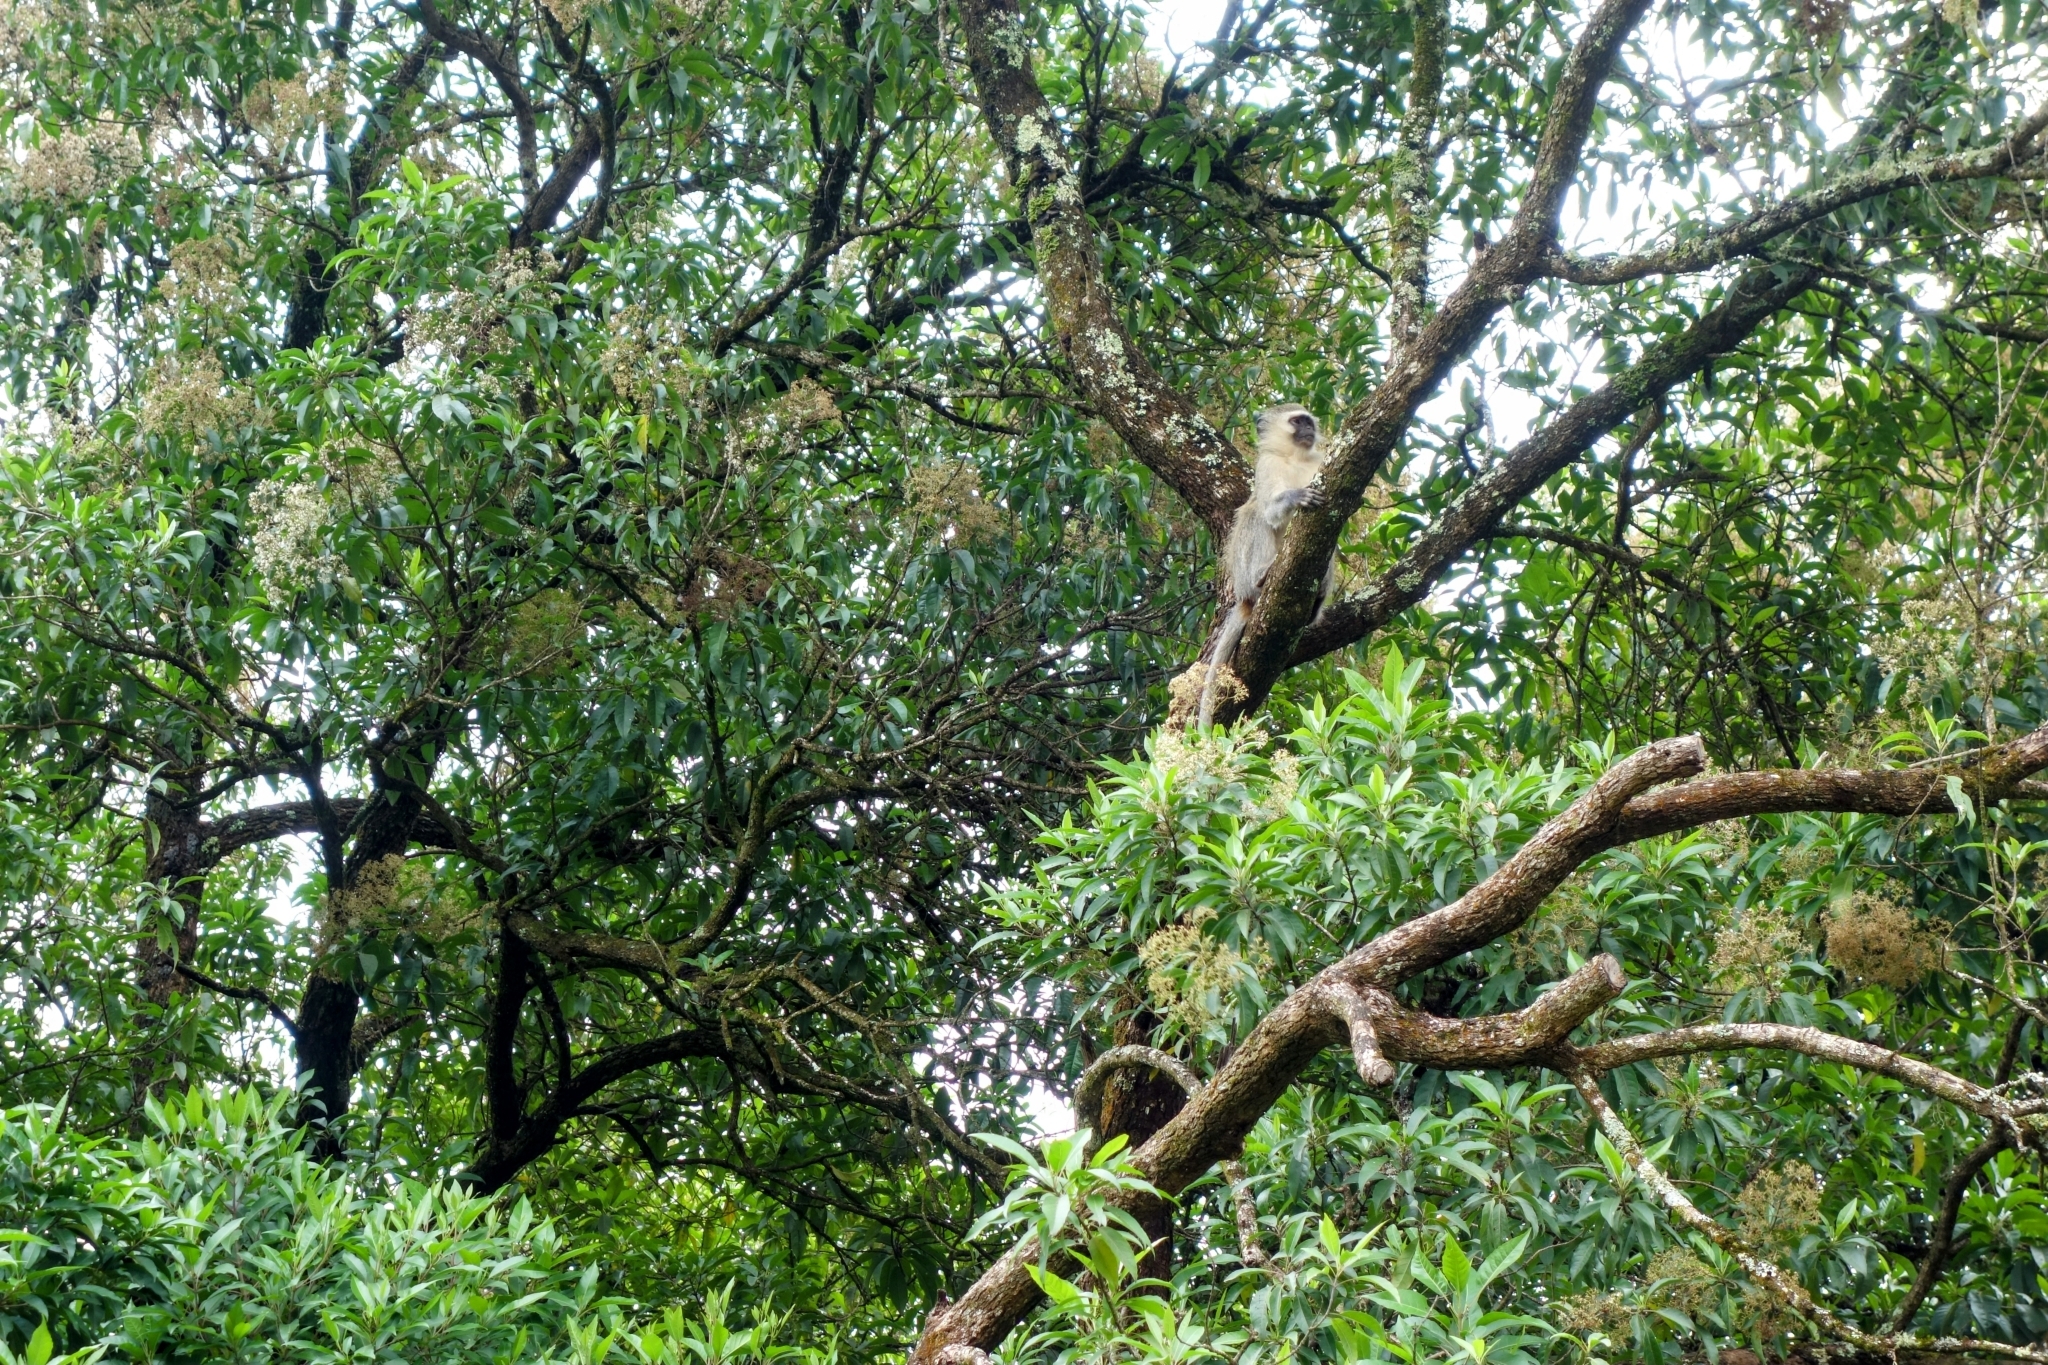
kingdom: Animalia
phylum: Chordata
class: Mammalia
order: Primates
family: Cercopithecidae
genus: Chlorocebus
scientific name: Chlorocebus pygerythrus
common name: Vervet monkey
